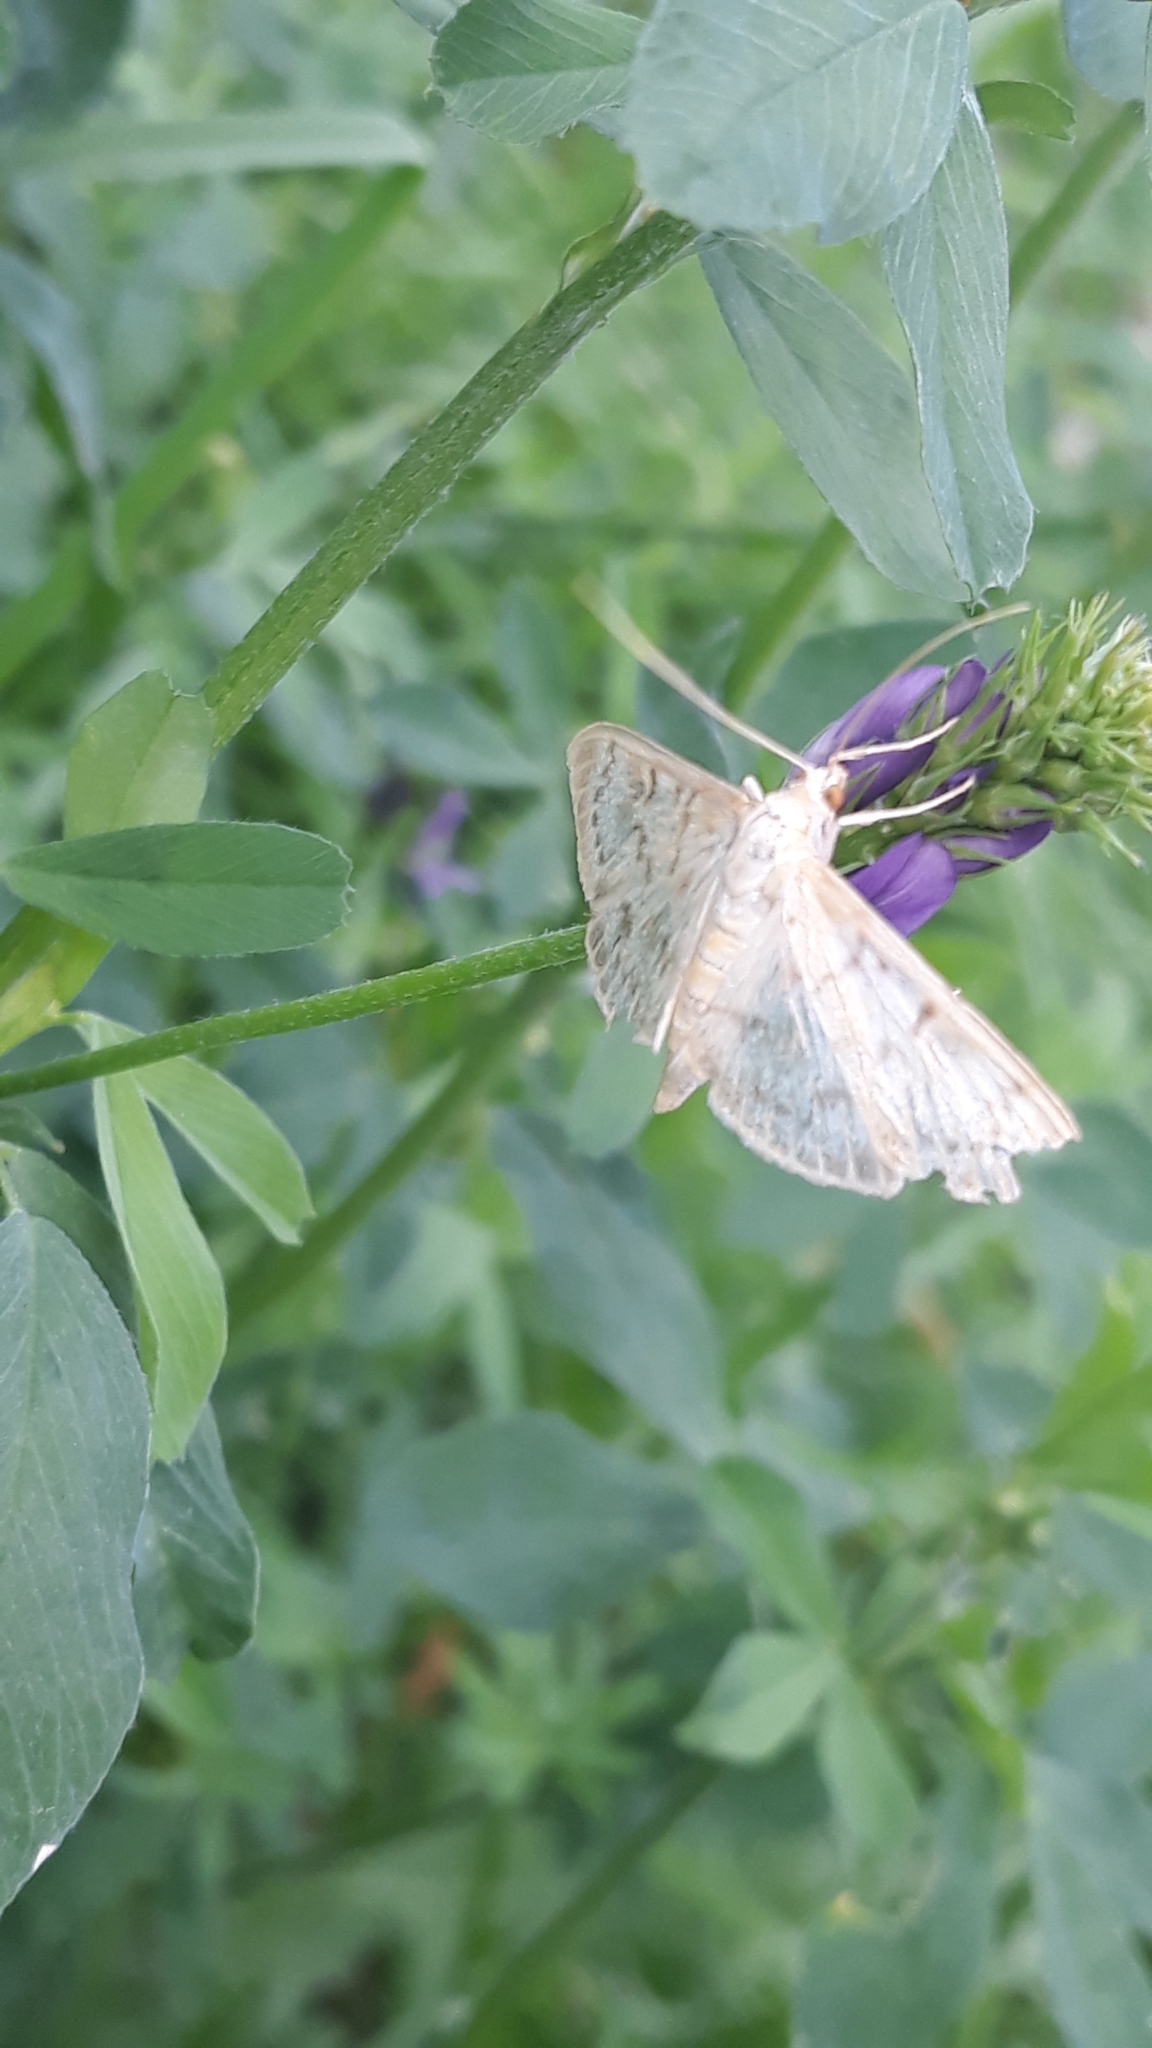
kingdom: Animalia
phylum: Arthropoda
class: Insecta
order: Lepidoptera
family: Crambidae
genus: Patania
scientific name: Patania ruralis
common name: Mother of pearl
